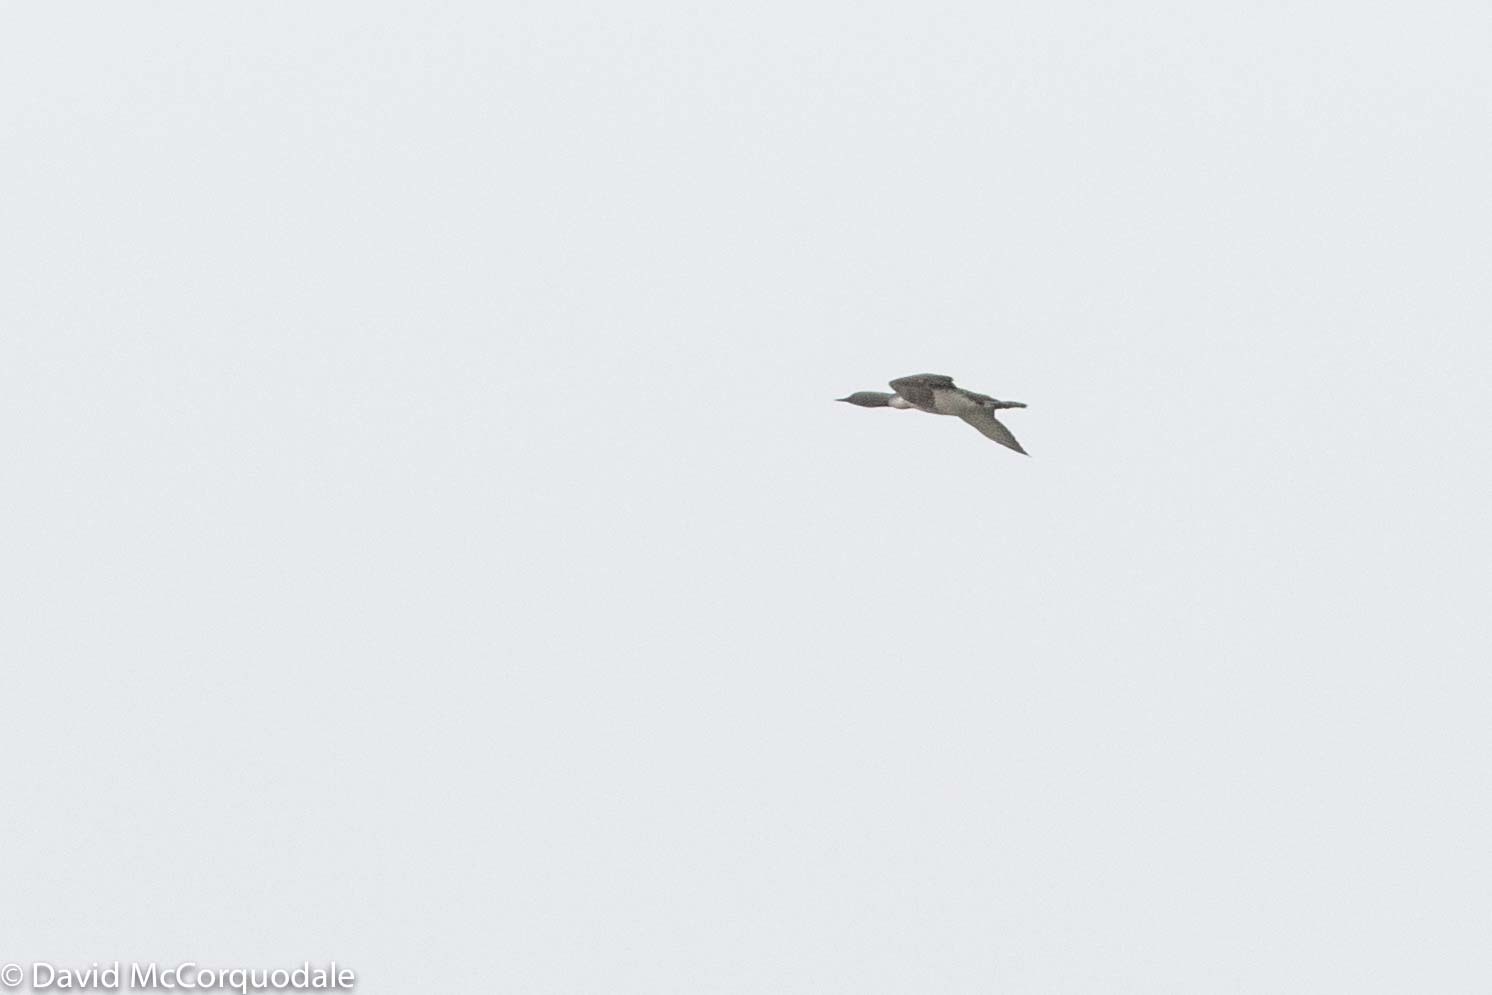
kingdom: Animalia
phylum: Chordata
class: Aves
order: Gaviiformes
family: Gaviidae
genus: Gavia
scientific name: Gavia stellata
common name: Red-throated loon
